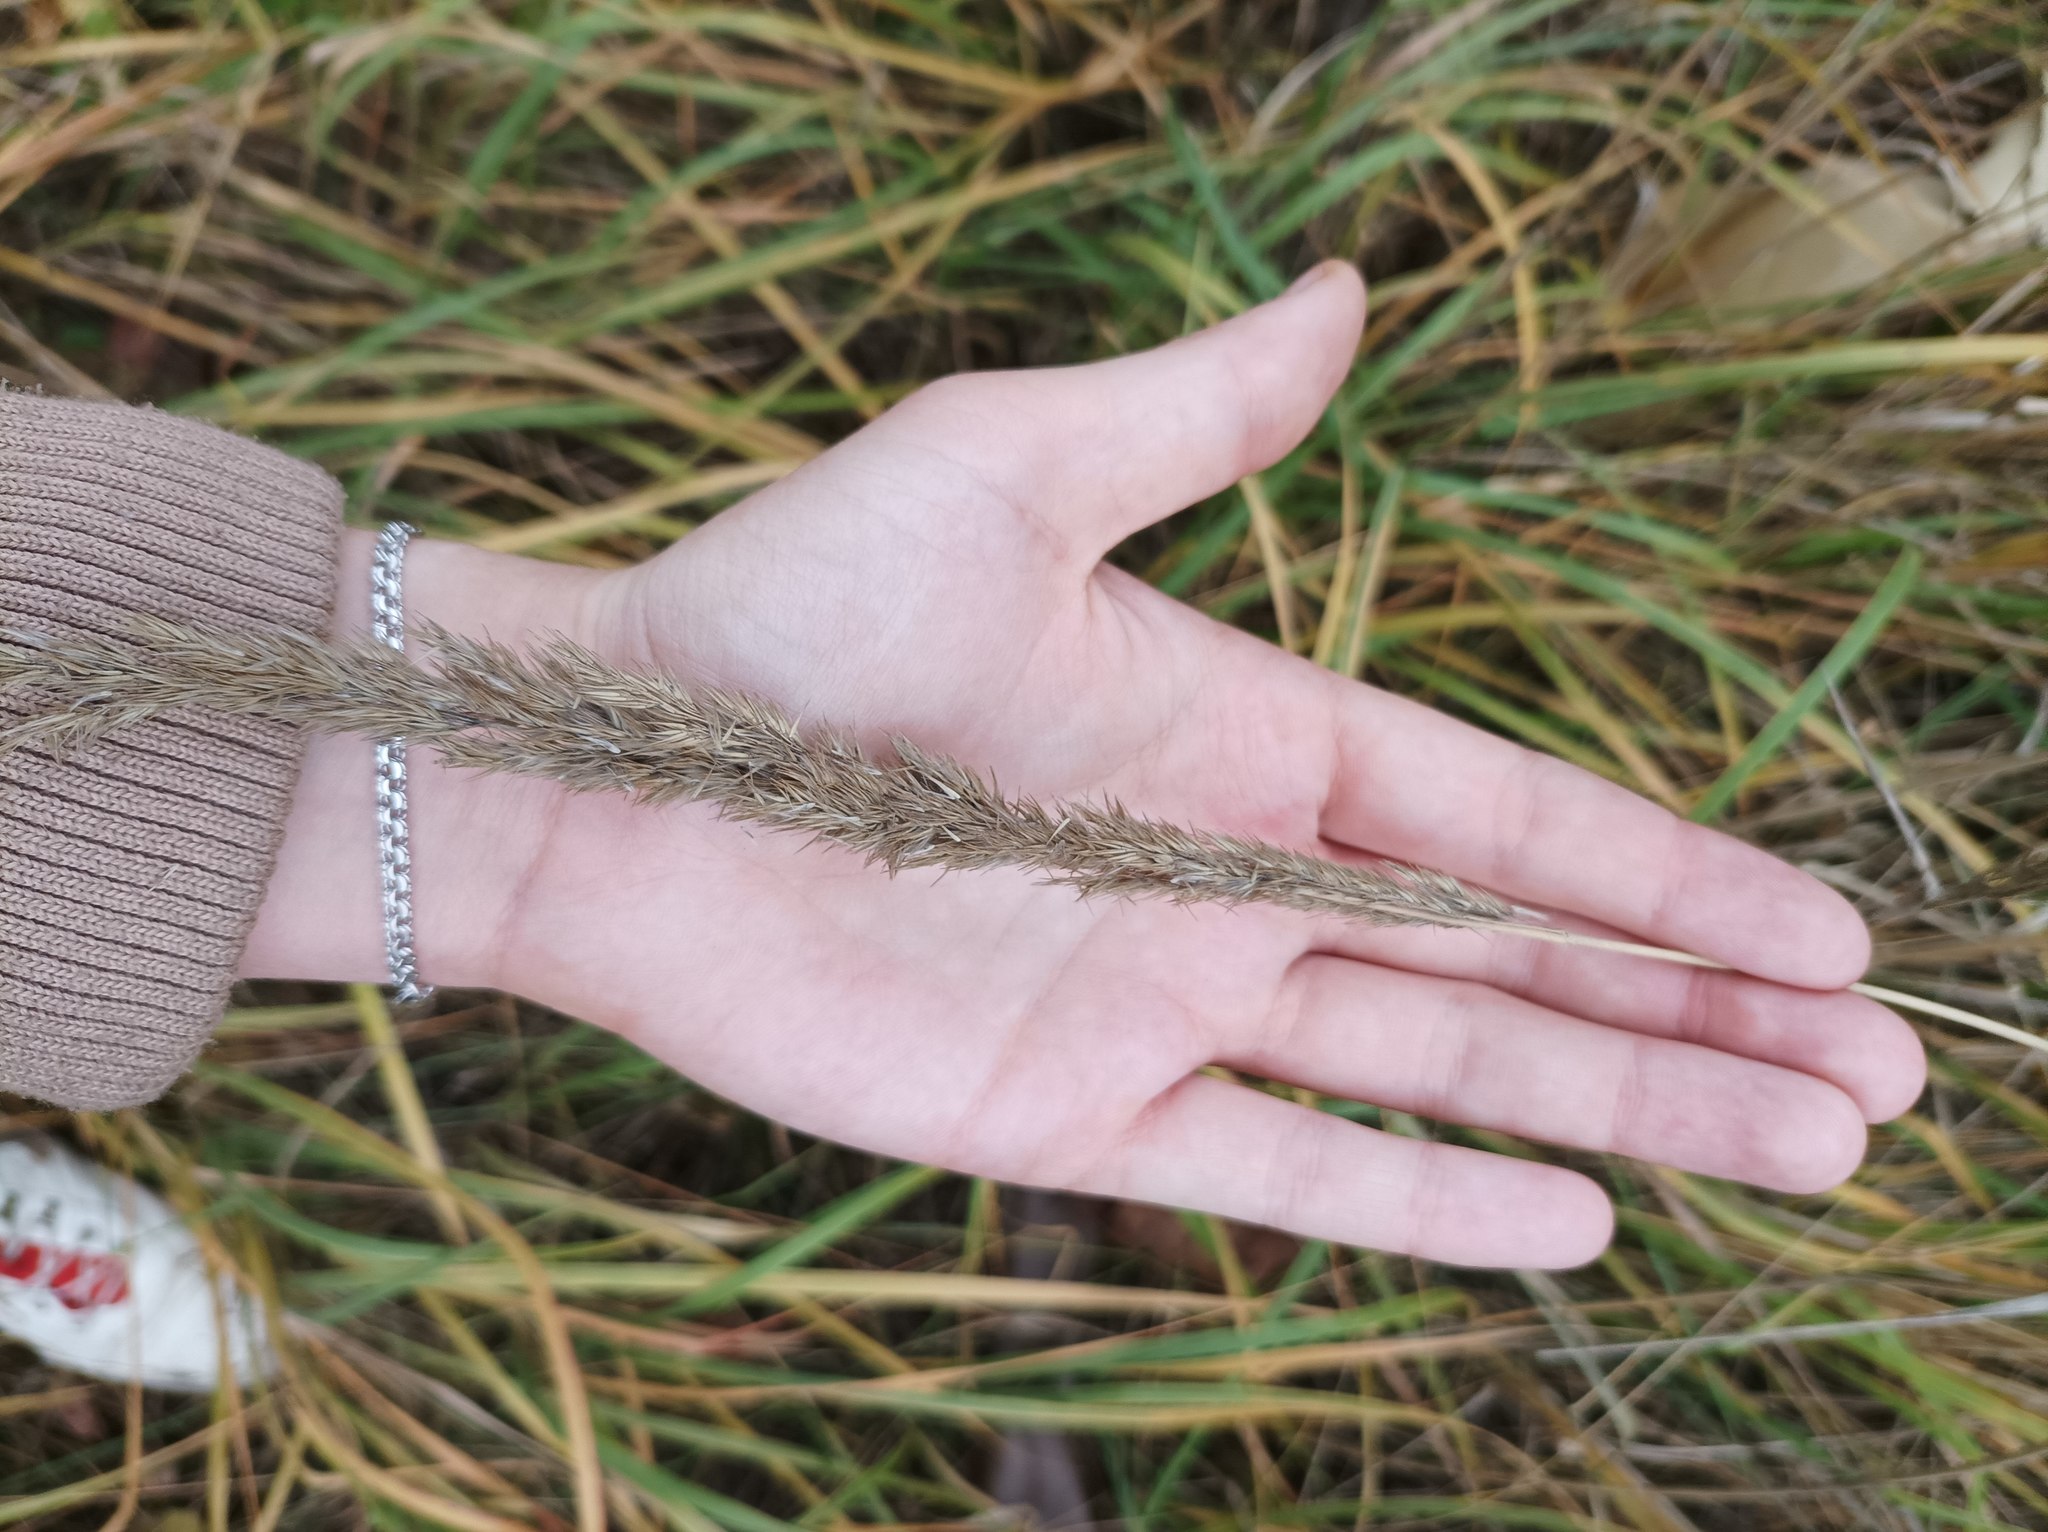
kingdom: Plantae
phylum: Tracheophyta
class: Liliopsida
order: Poales
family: Poaceae
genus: Calamagrostis
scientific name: Calamagrostis epigejos
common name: Wood small-reed
